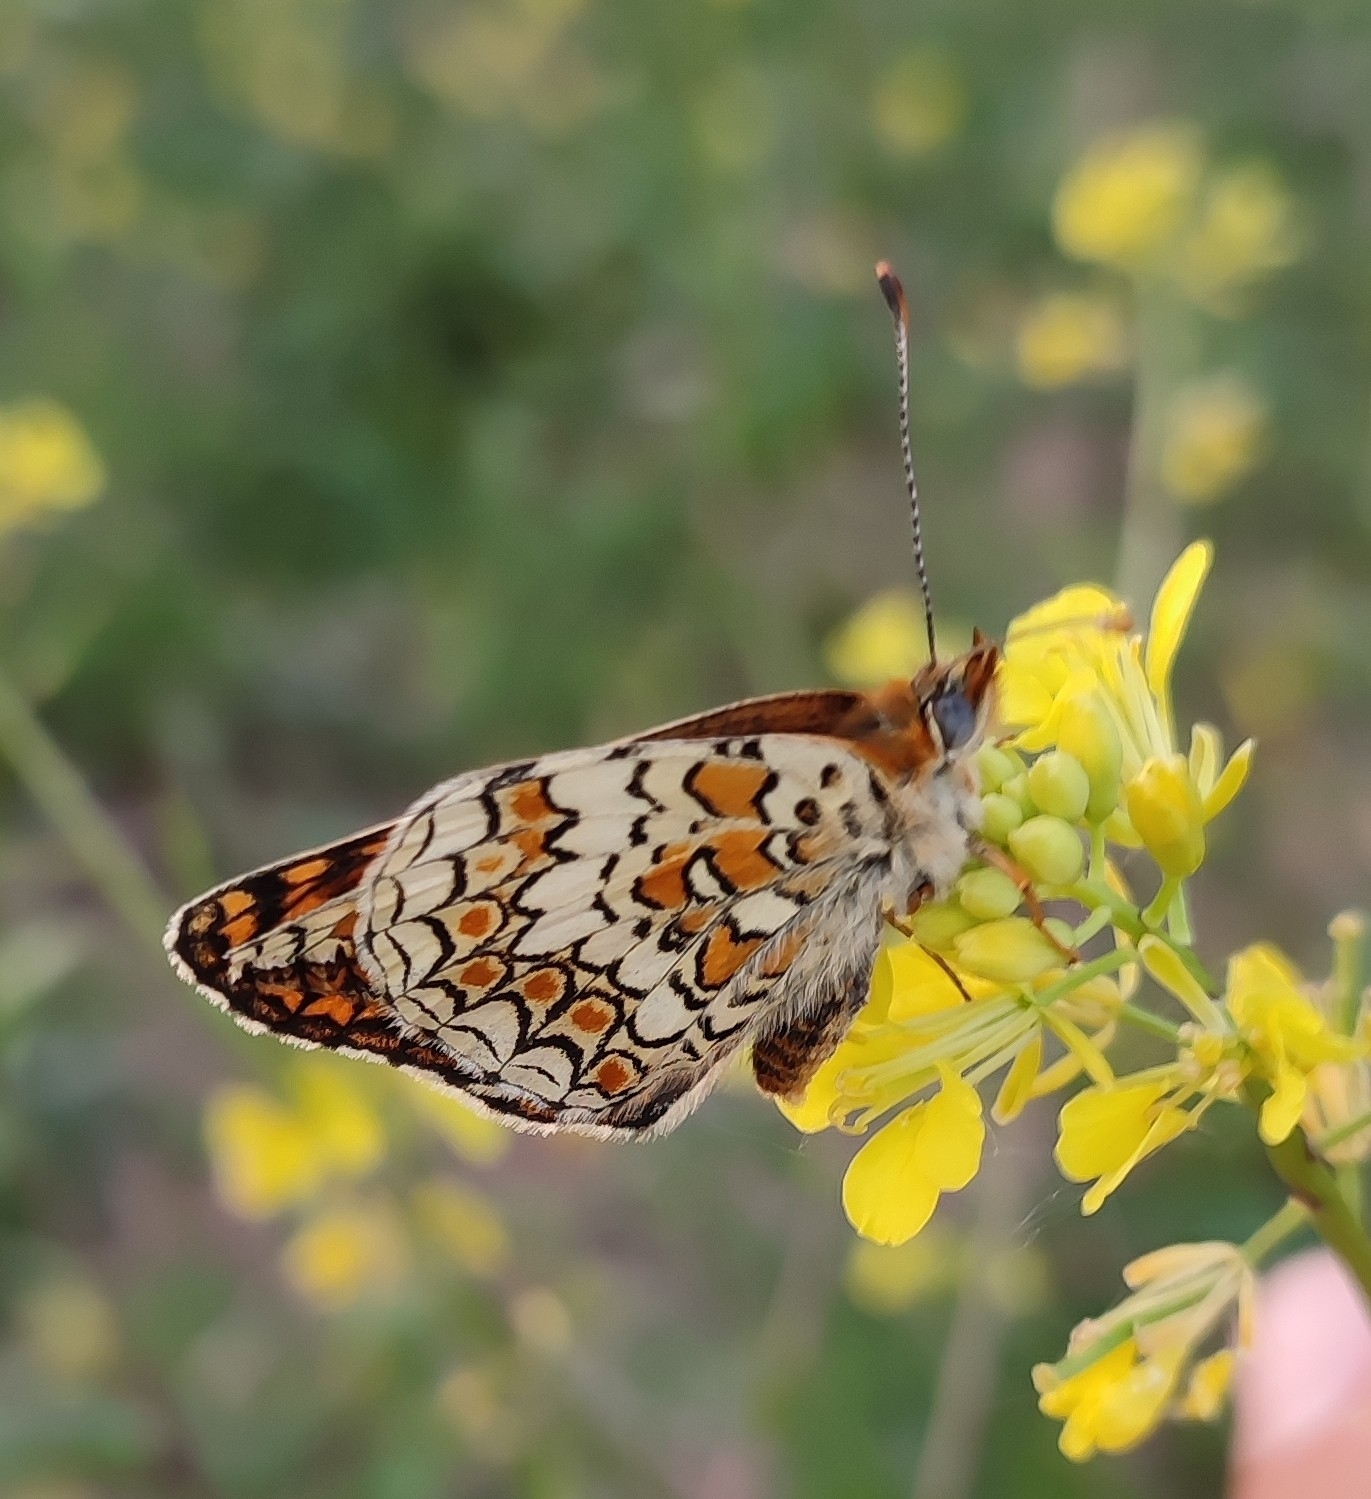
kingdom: Animalia
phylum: Arthropoda
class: Insecta
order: Lepidoptera
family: Nymphalidae
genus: Melitaea
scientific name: Melitaea phoebe
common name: Knapweed fritillary
